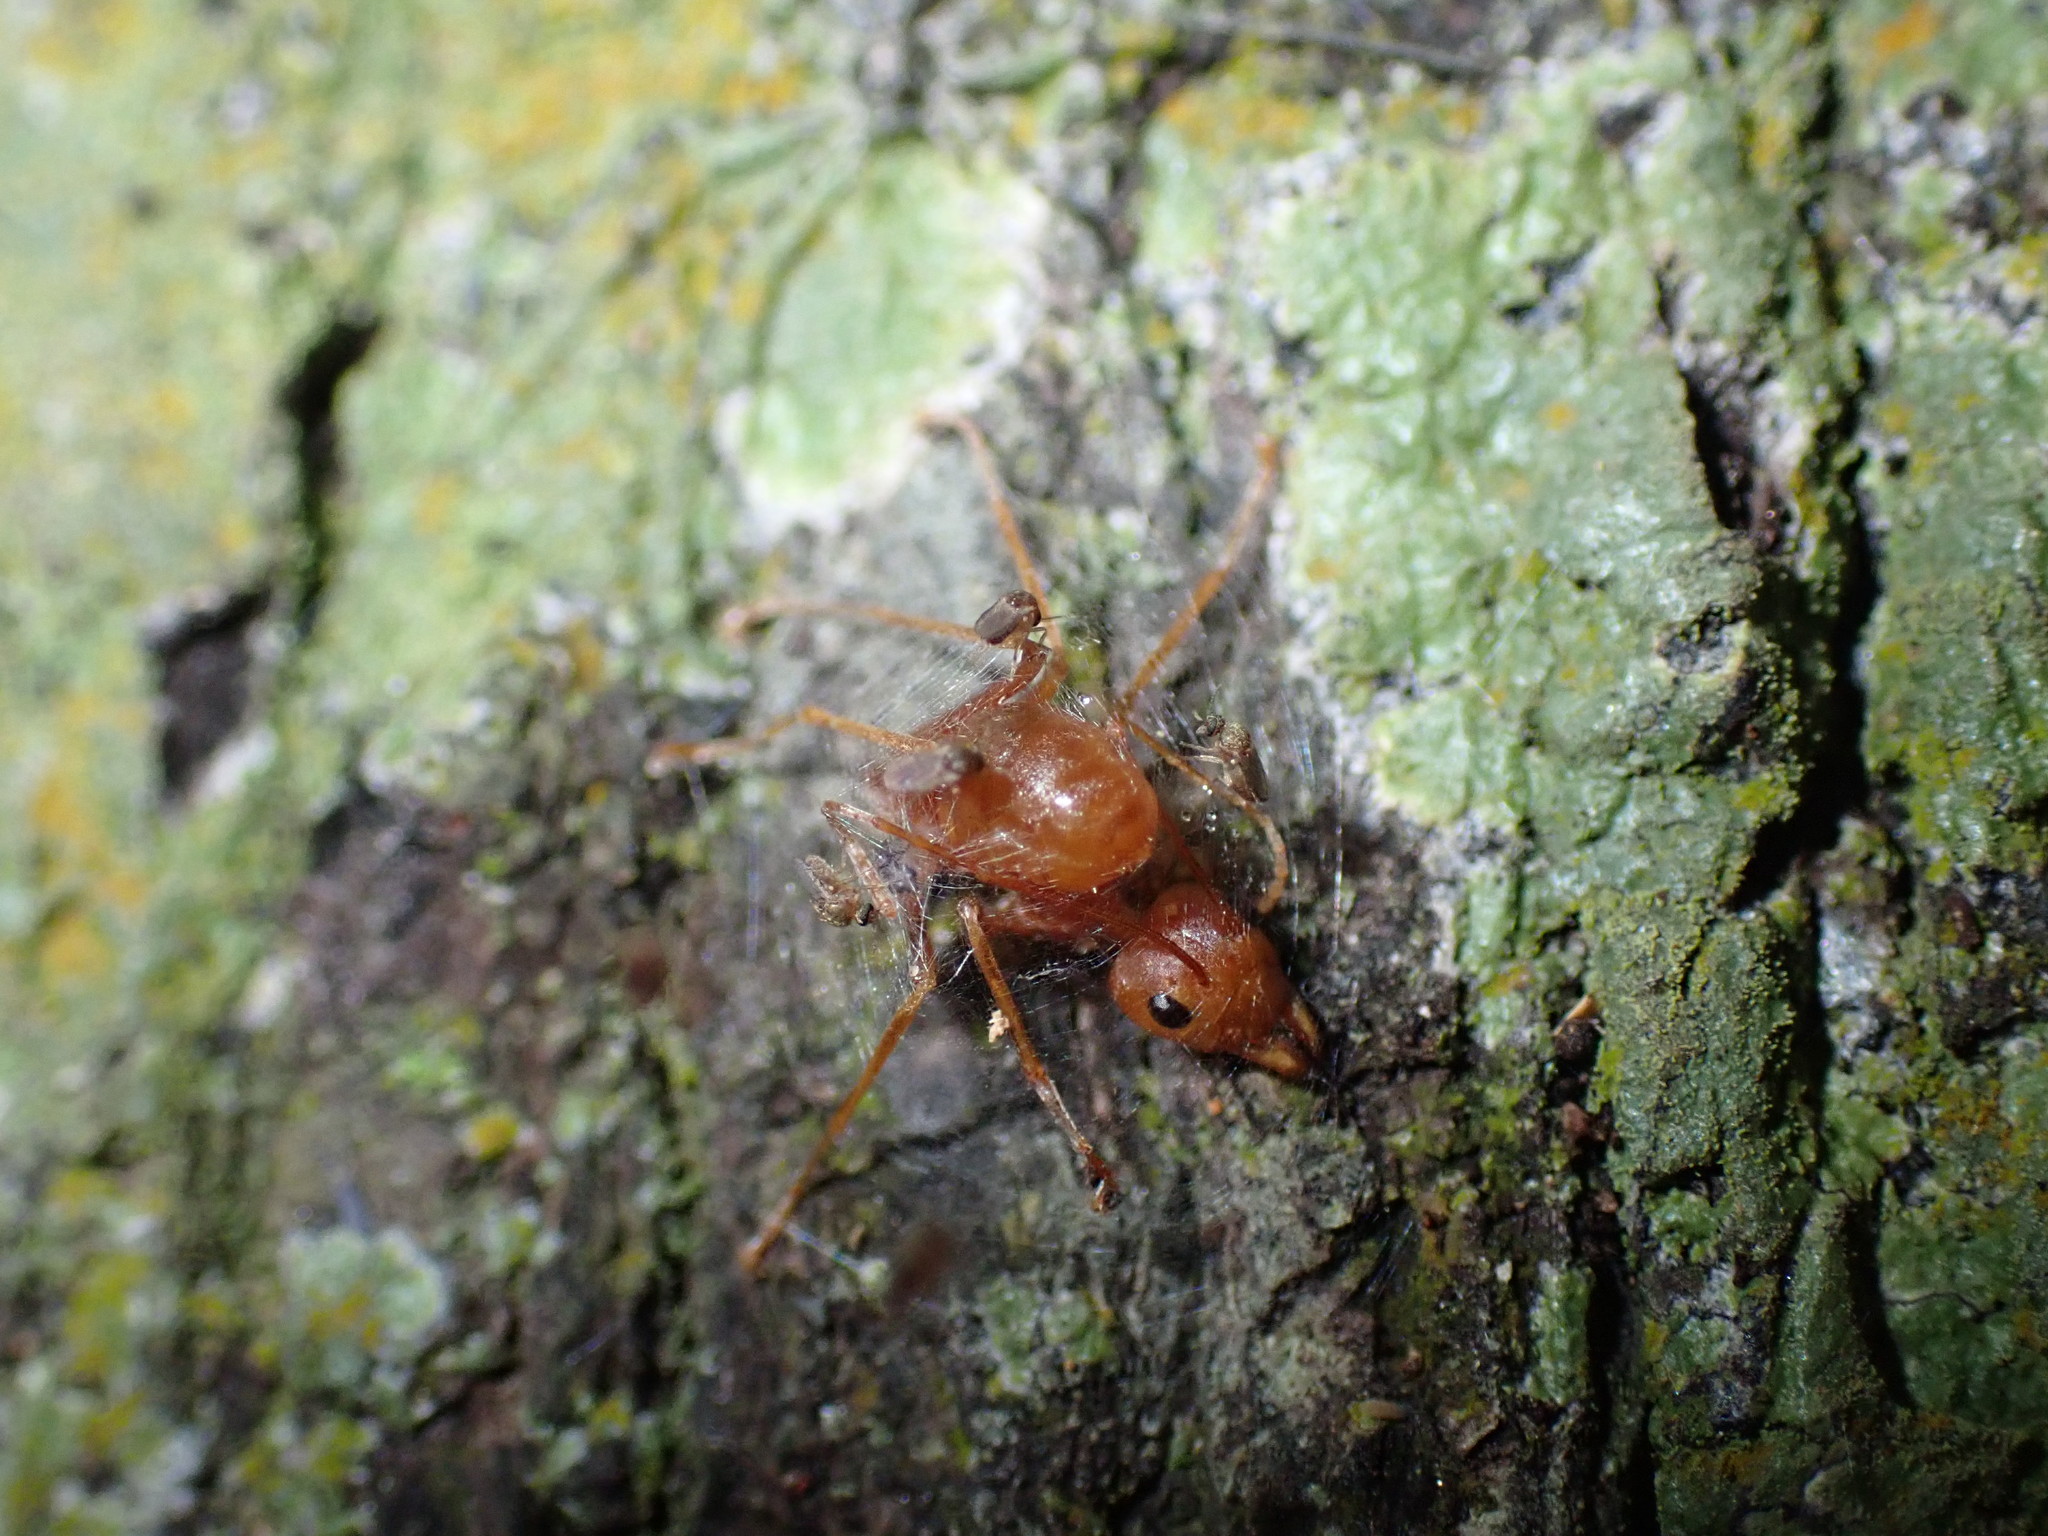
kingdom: Animalia
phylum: Arthropoda
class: Insecta
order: Hymenoptera
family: Formicidae
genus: Oecophylla
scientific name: Oecophylla smaragdina
